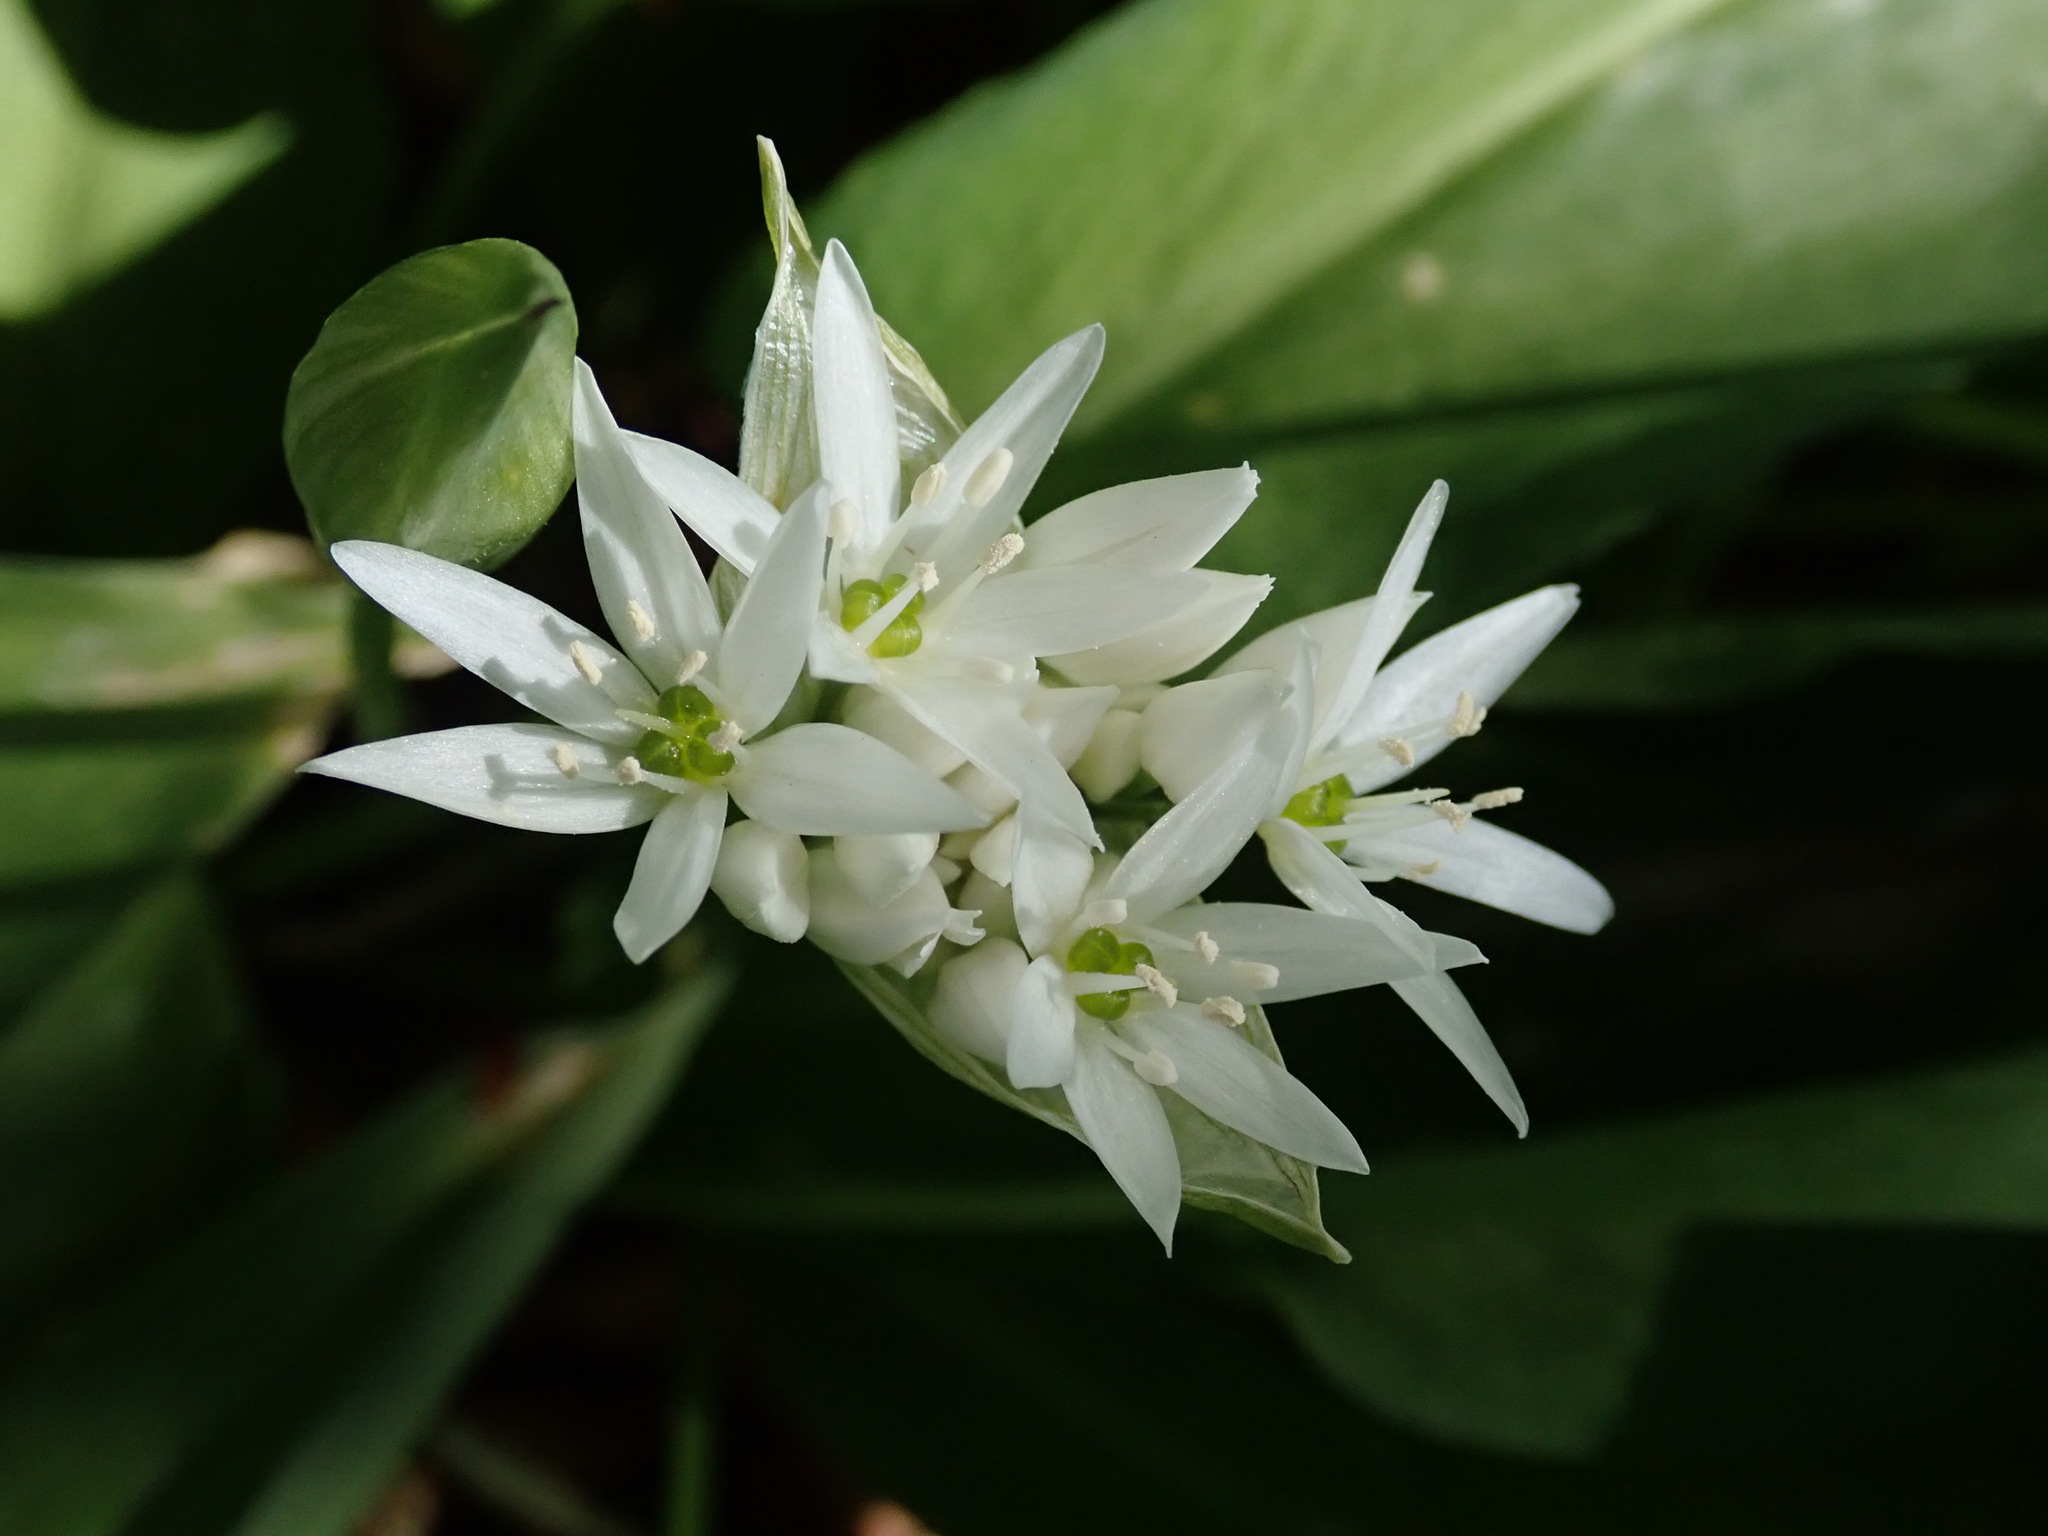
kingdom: Plantae
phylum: Tracheophyta
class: Liliopsida
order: Asparagales
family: Amaryllidaceae
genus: Allium
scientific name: Allium ursinum
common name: Ramsons
